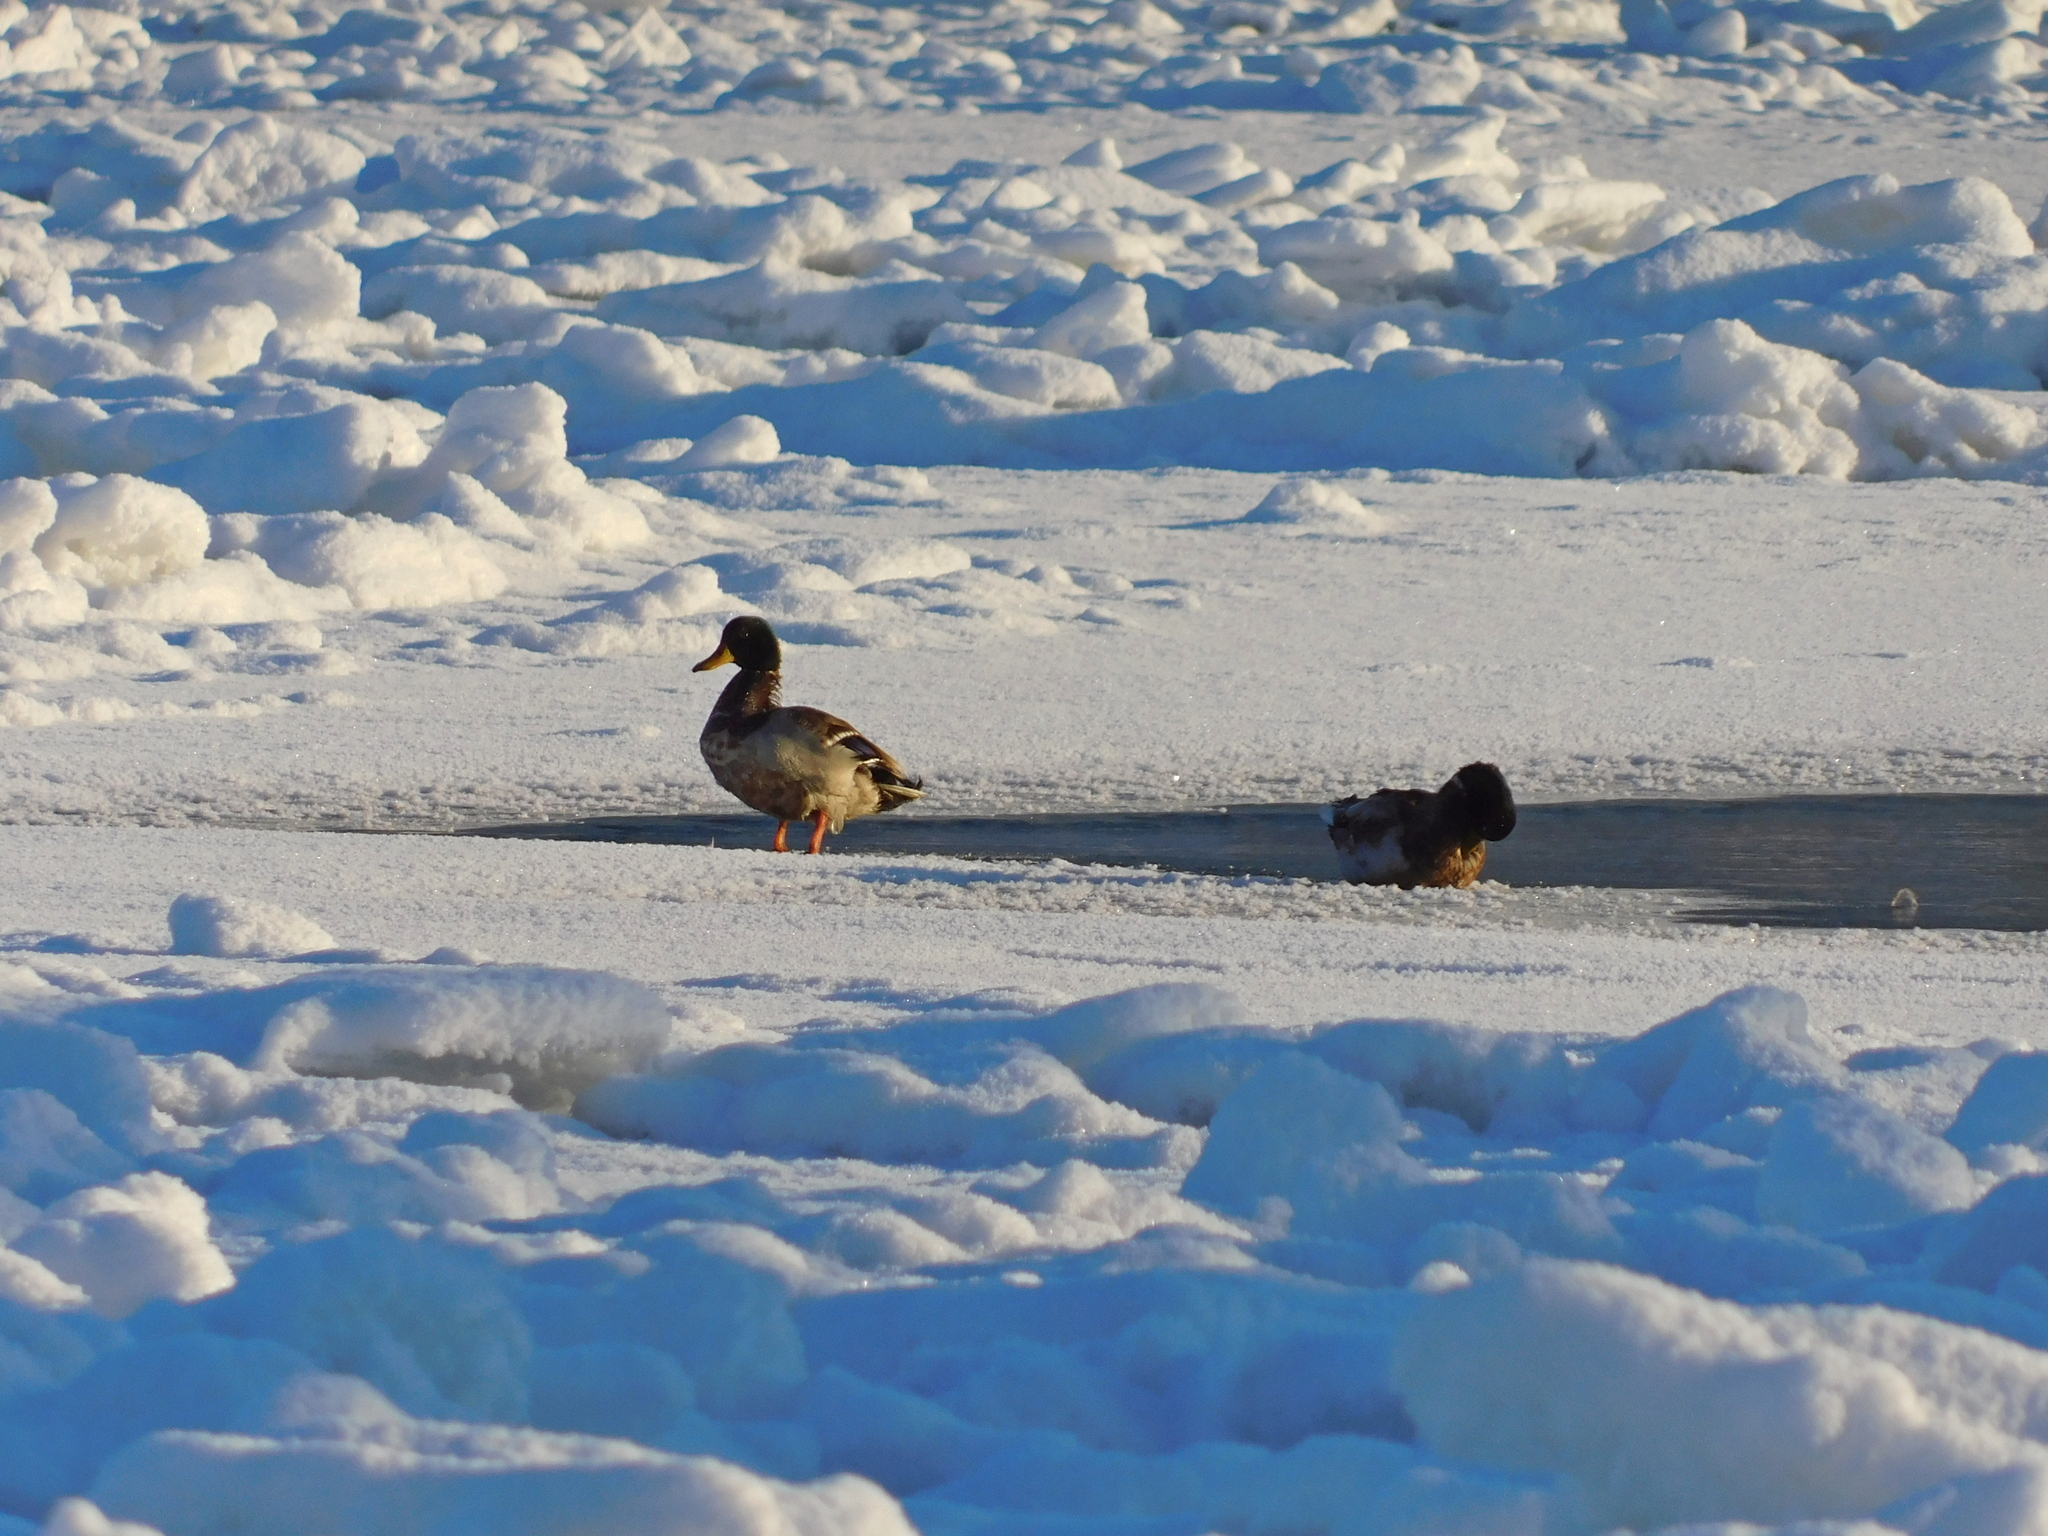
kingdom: Animalia
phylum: Chordata
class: Aves
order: Anseriformes
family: Anatidae
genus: Anas
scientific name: Anas platyrhynchos
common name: Mallard
